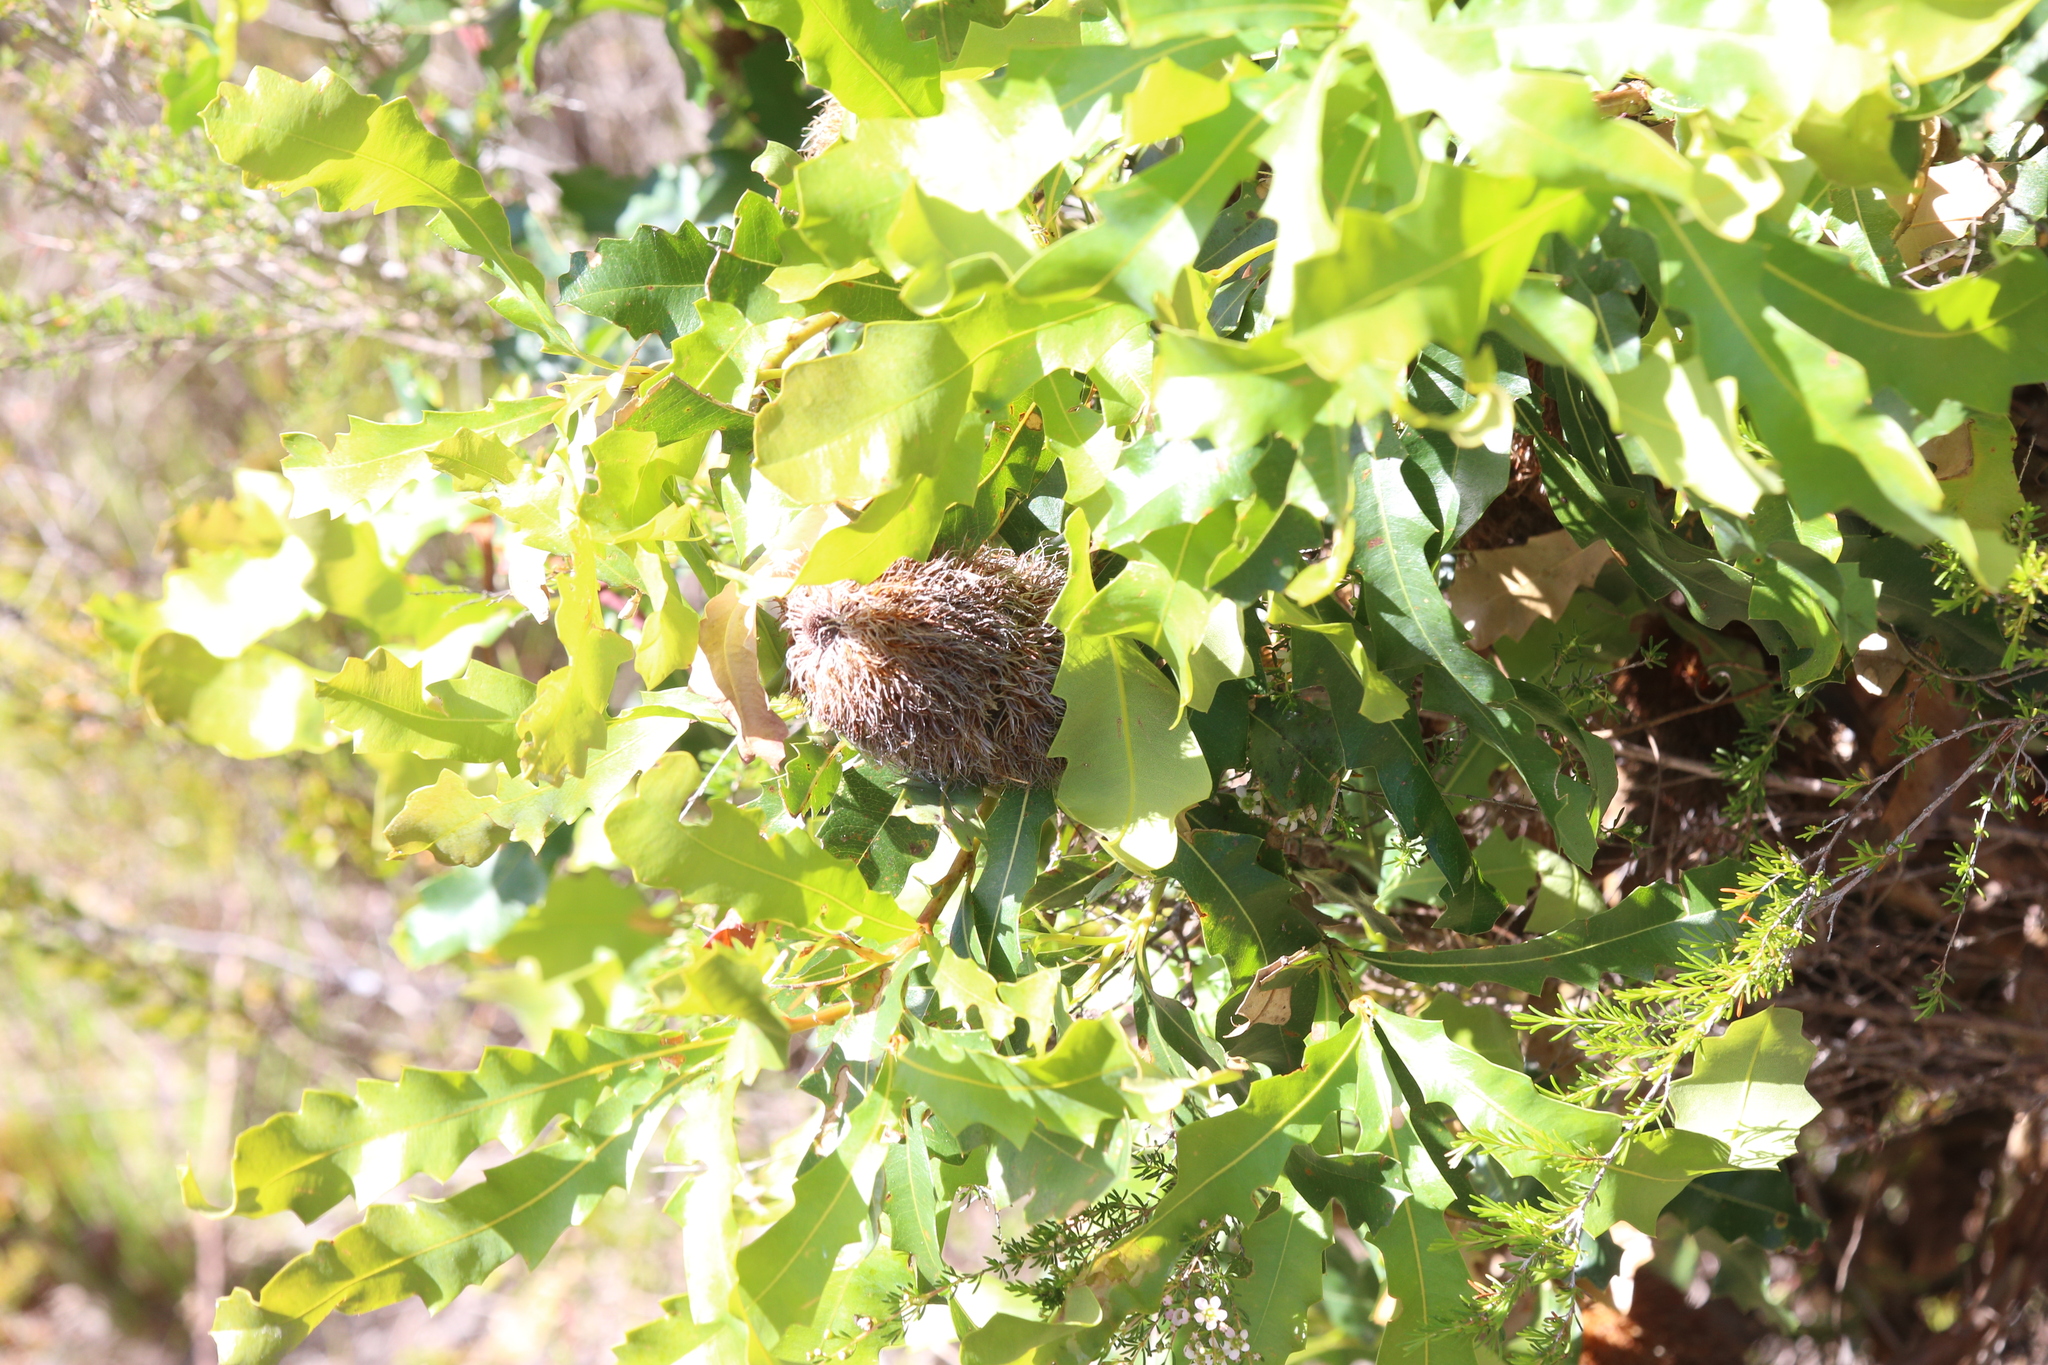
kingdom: Plantae
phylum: Tracheophyta
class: Magnoliopsida
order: Proteales
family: Proteaceae
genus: Banksia
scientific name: Banksia quercifolia
